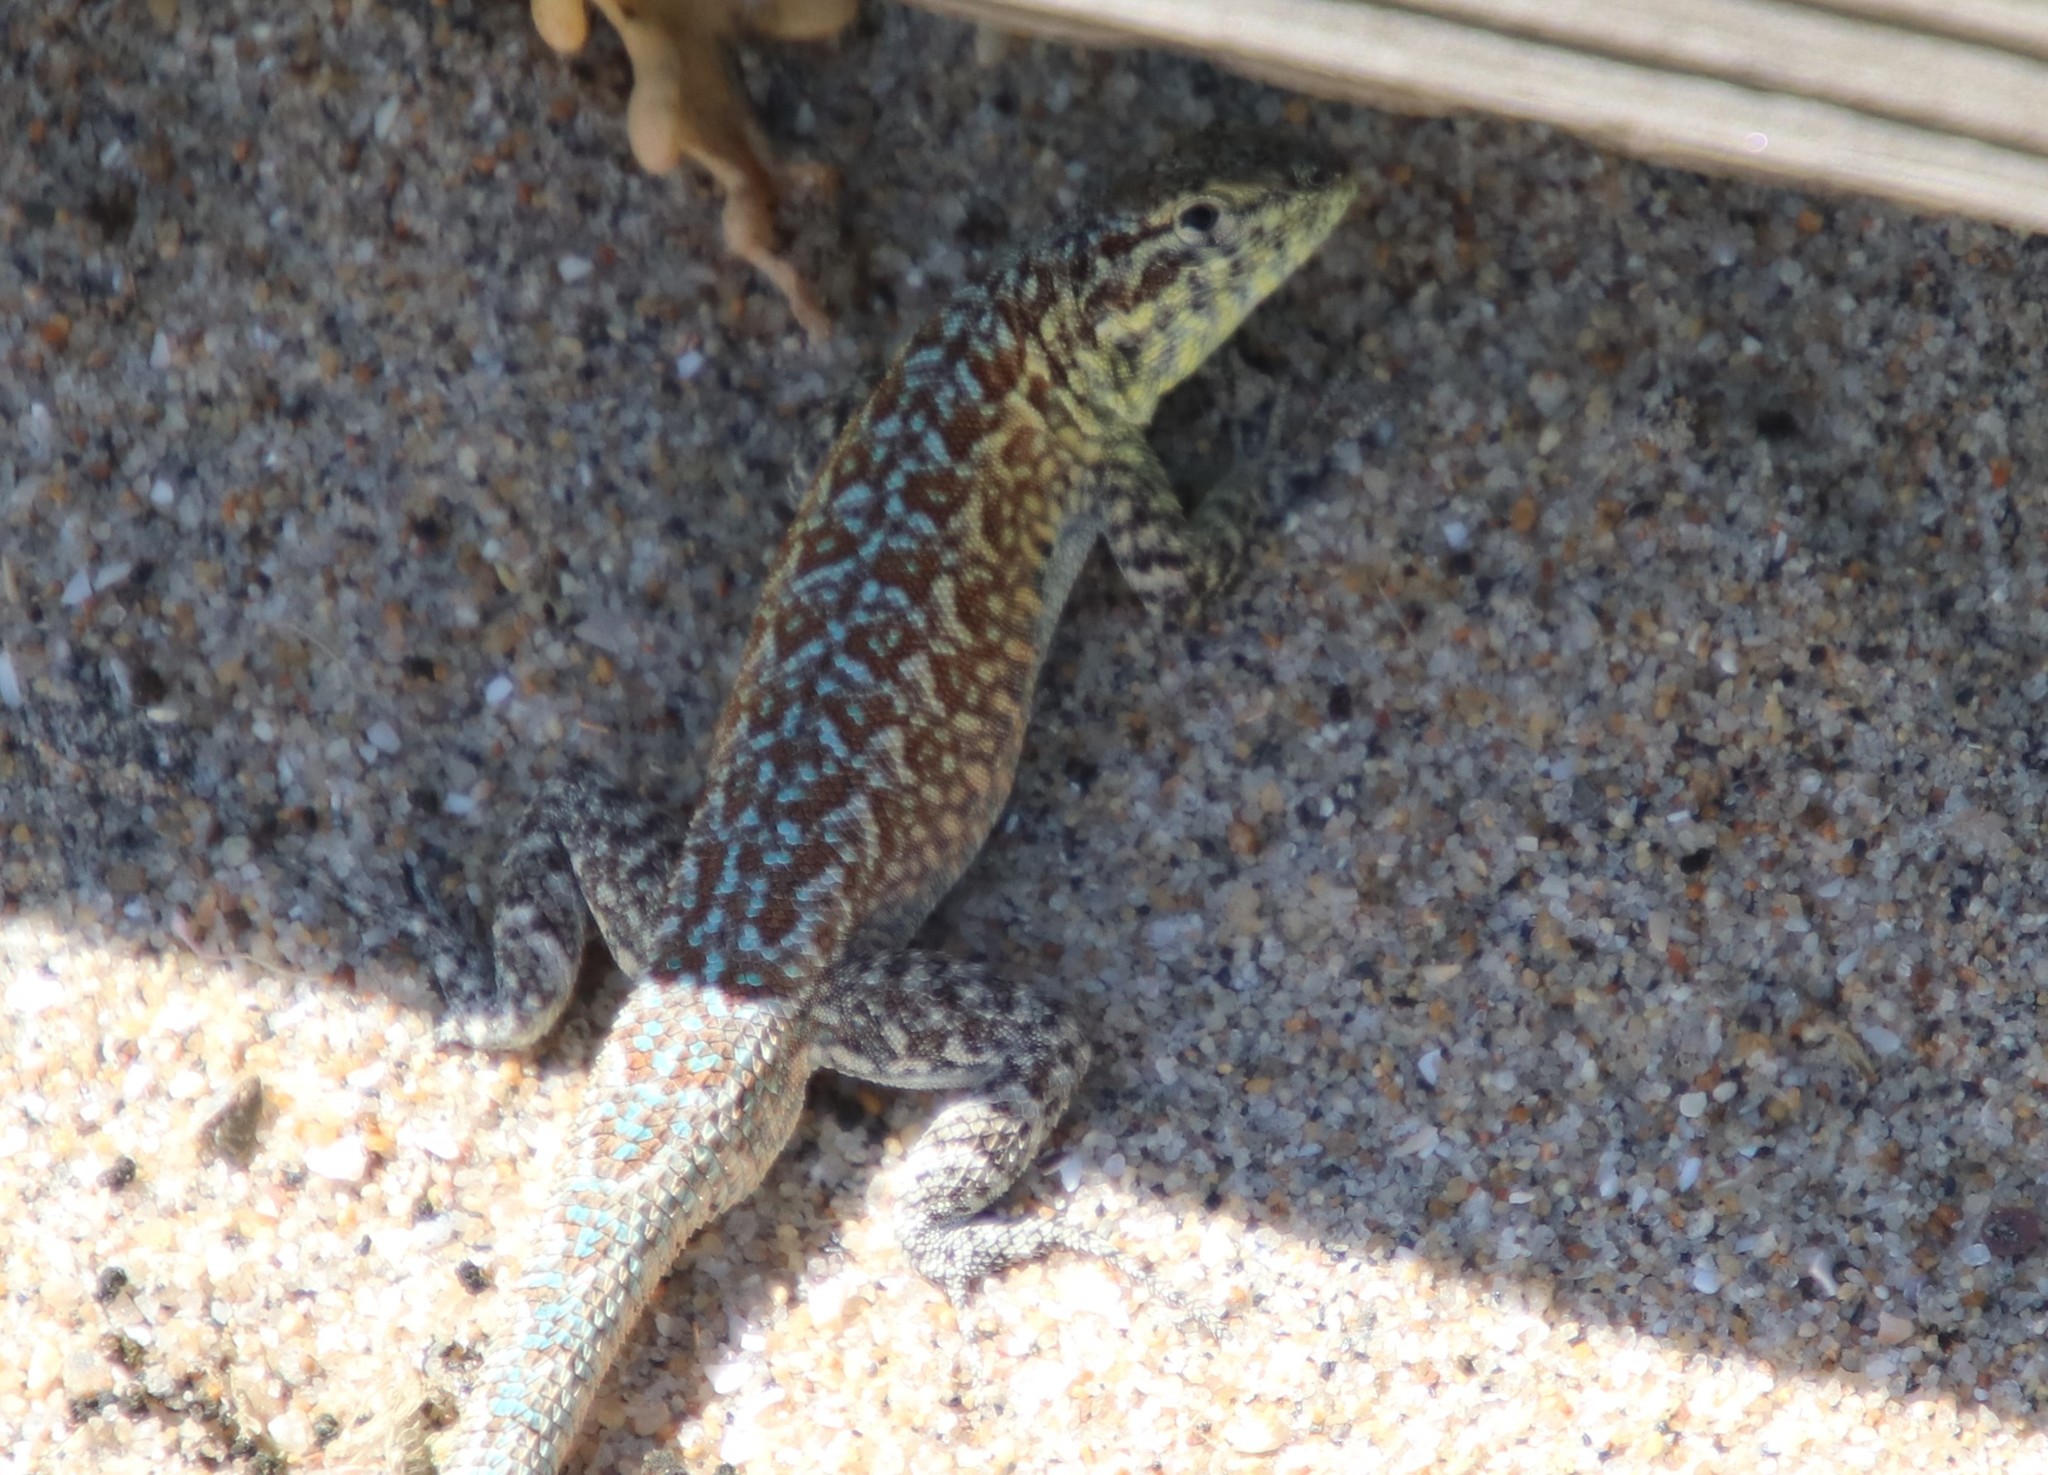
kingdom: Animalia
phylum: Chordata
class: Squamata
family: Phrynosomatidae
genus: Uta
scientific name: Uta stansburiana
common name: Side-blotched lizard
